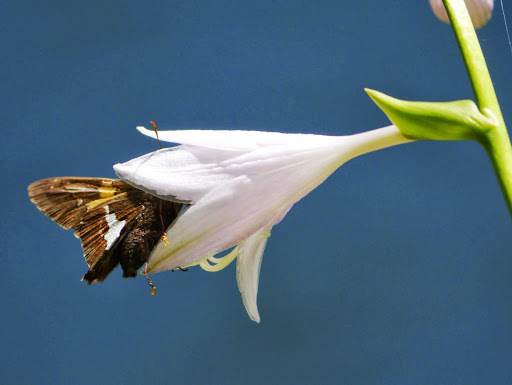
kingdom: Animalia
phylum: Arthropoda
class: Insecta
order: Lepidoptera
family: Hesperiidae
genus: Epargyreus
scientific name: Epargyreus clarus
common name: Silver-spotted skipper
